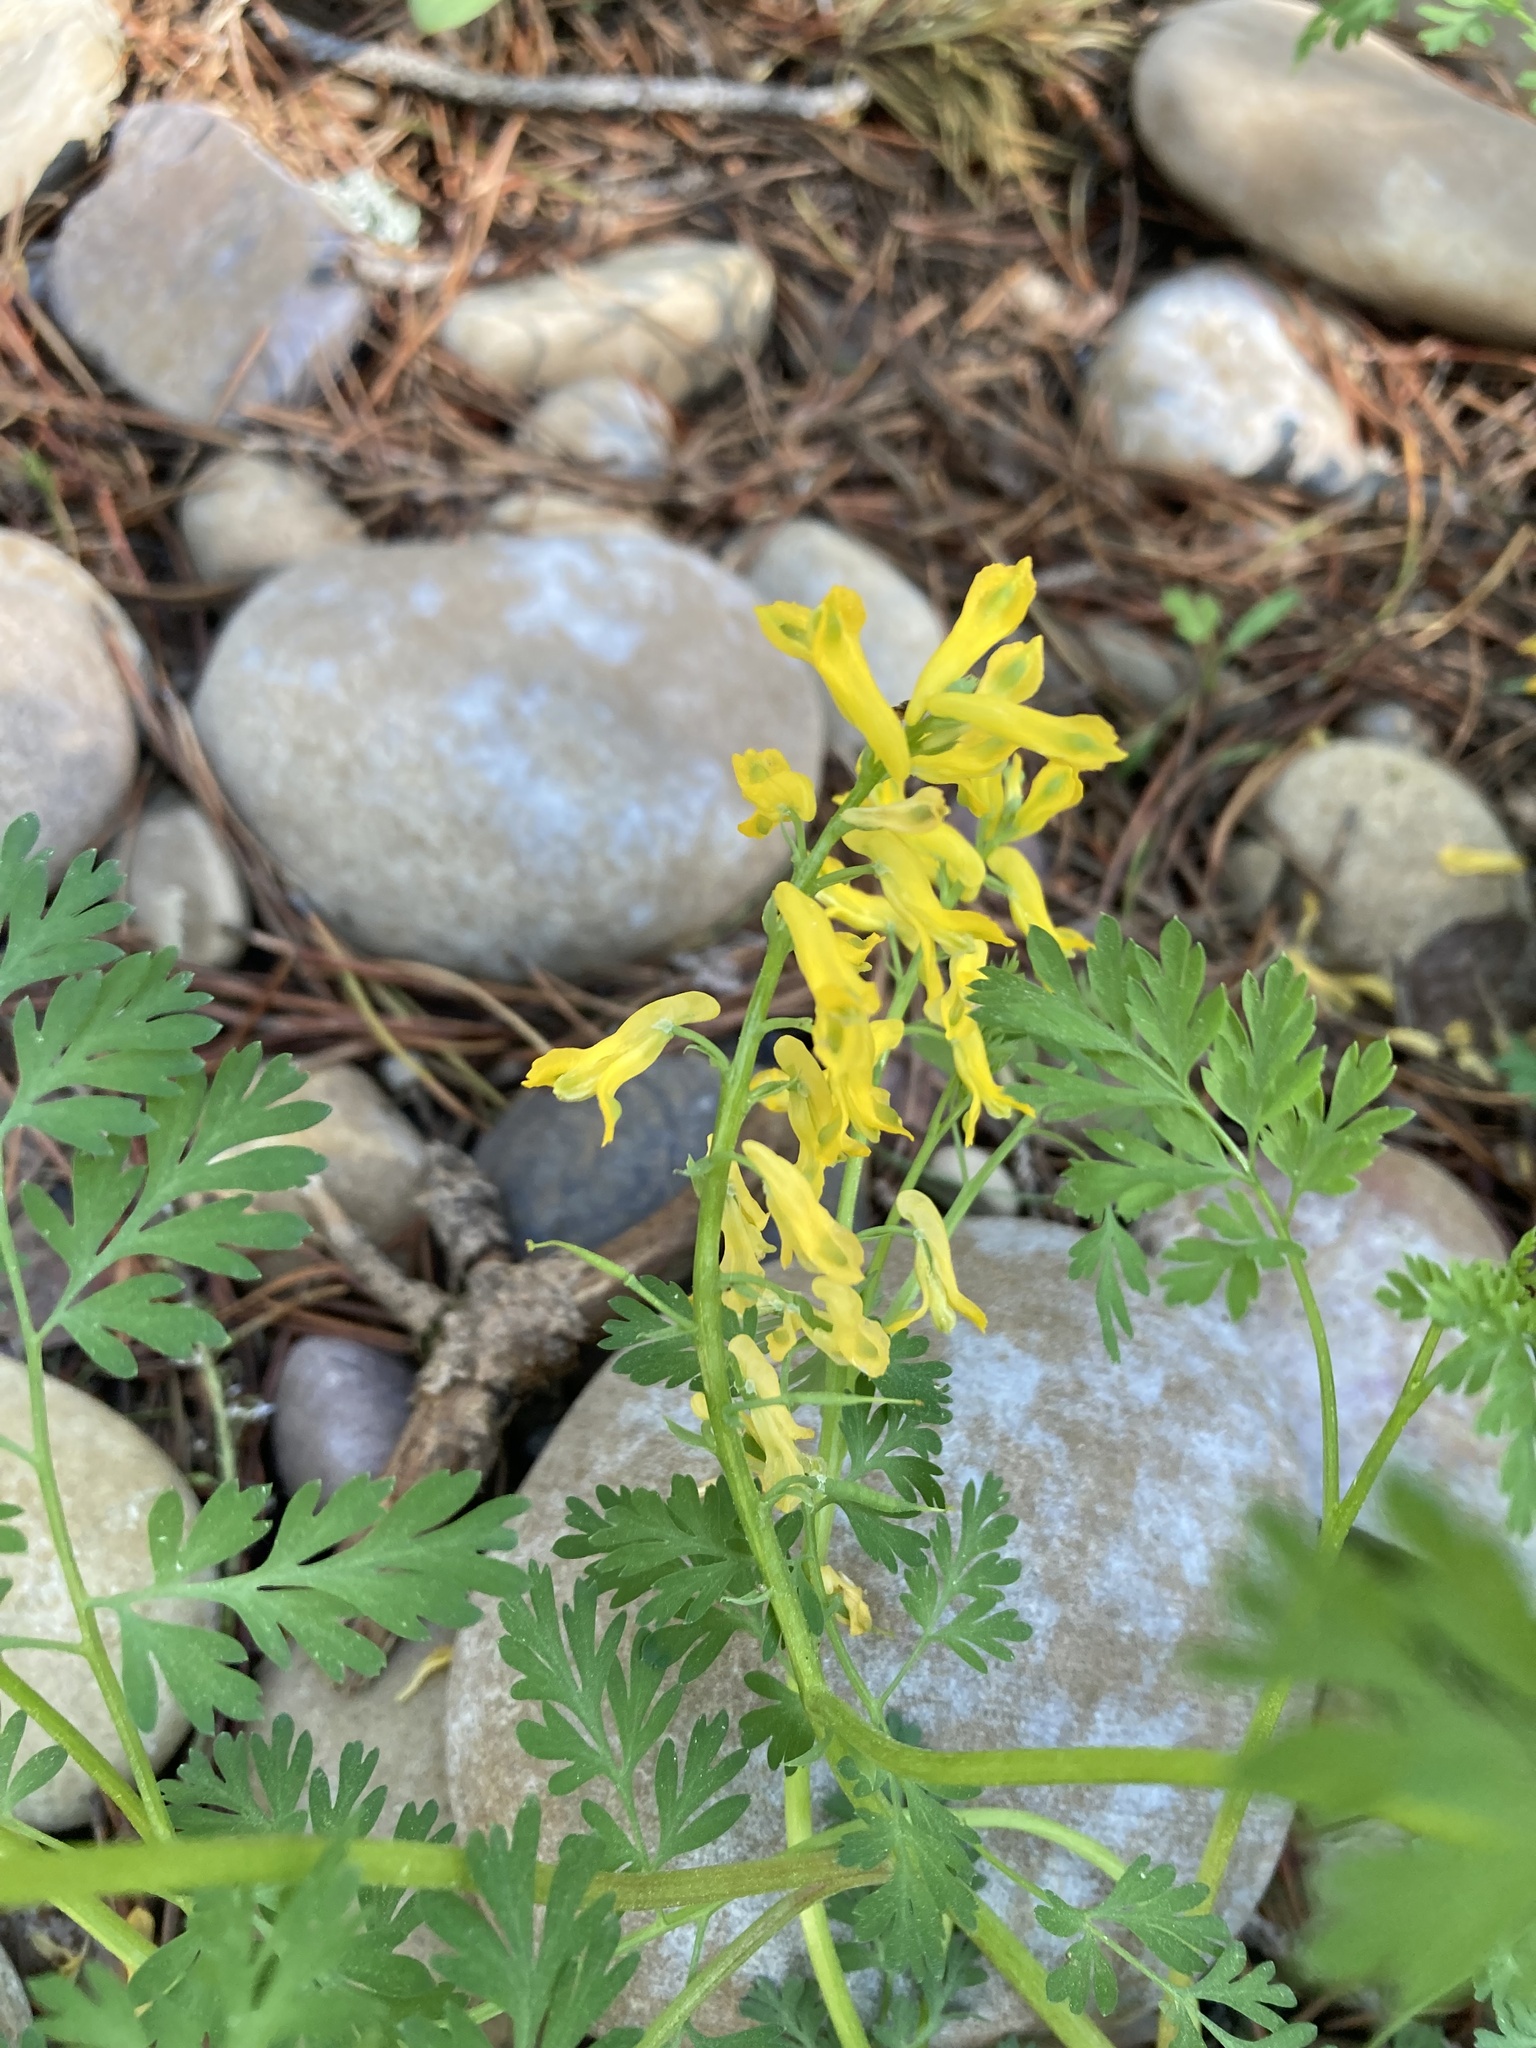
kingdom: Plantae
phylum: Tracheophyta
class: Magnoliopsida
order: Ranunculales
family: Papaveraceae
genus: Corydalis
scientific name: Corydalis aurea
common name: Golden corydalis
